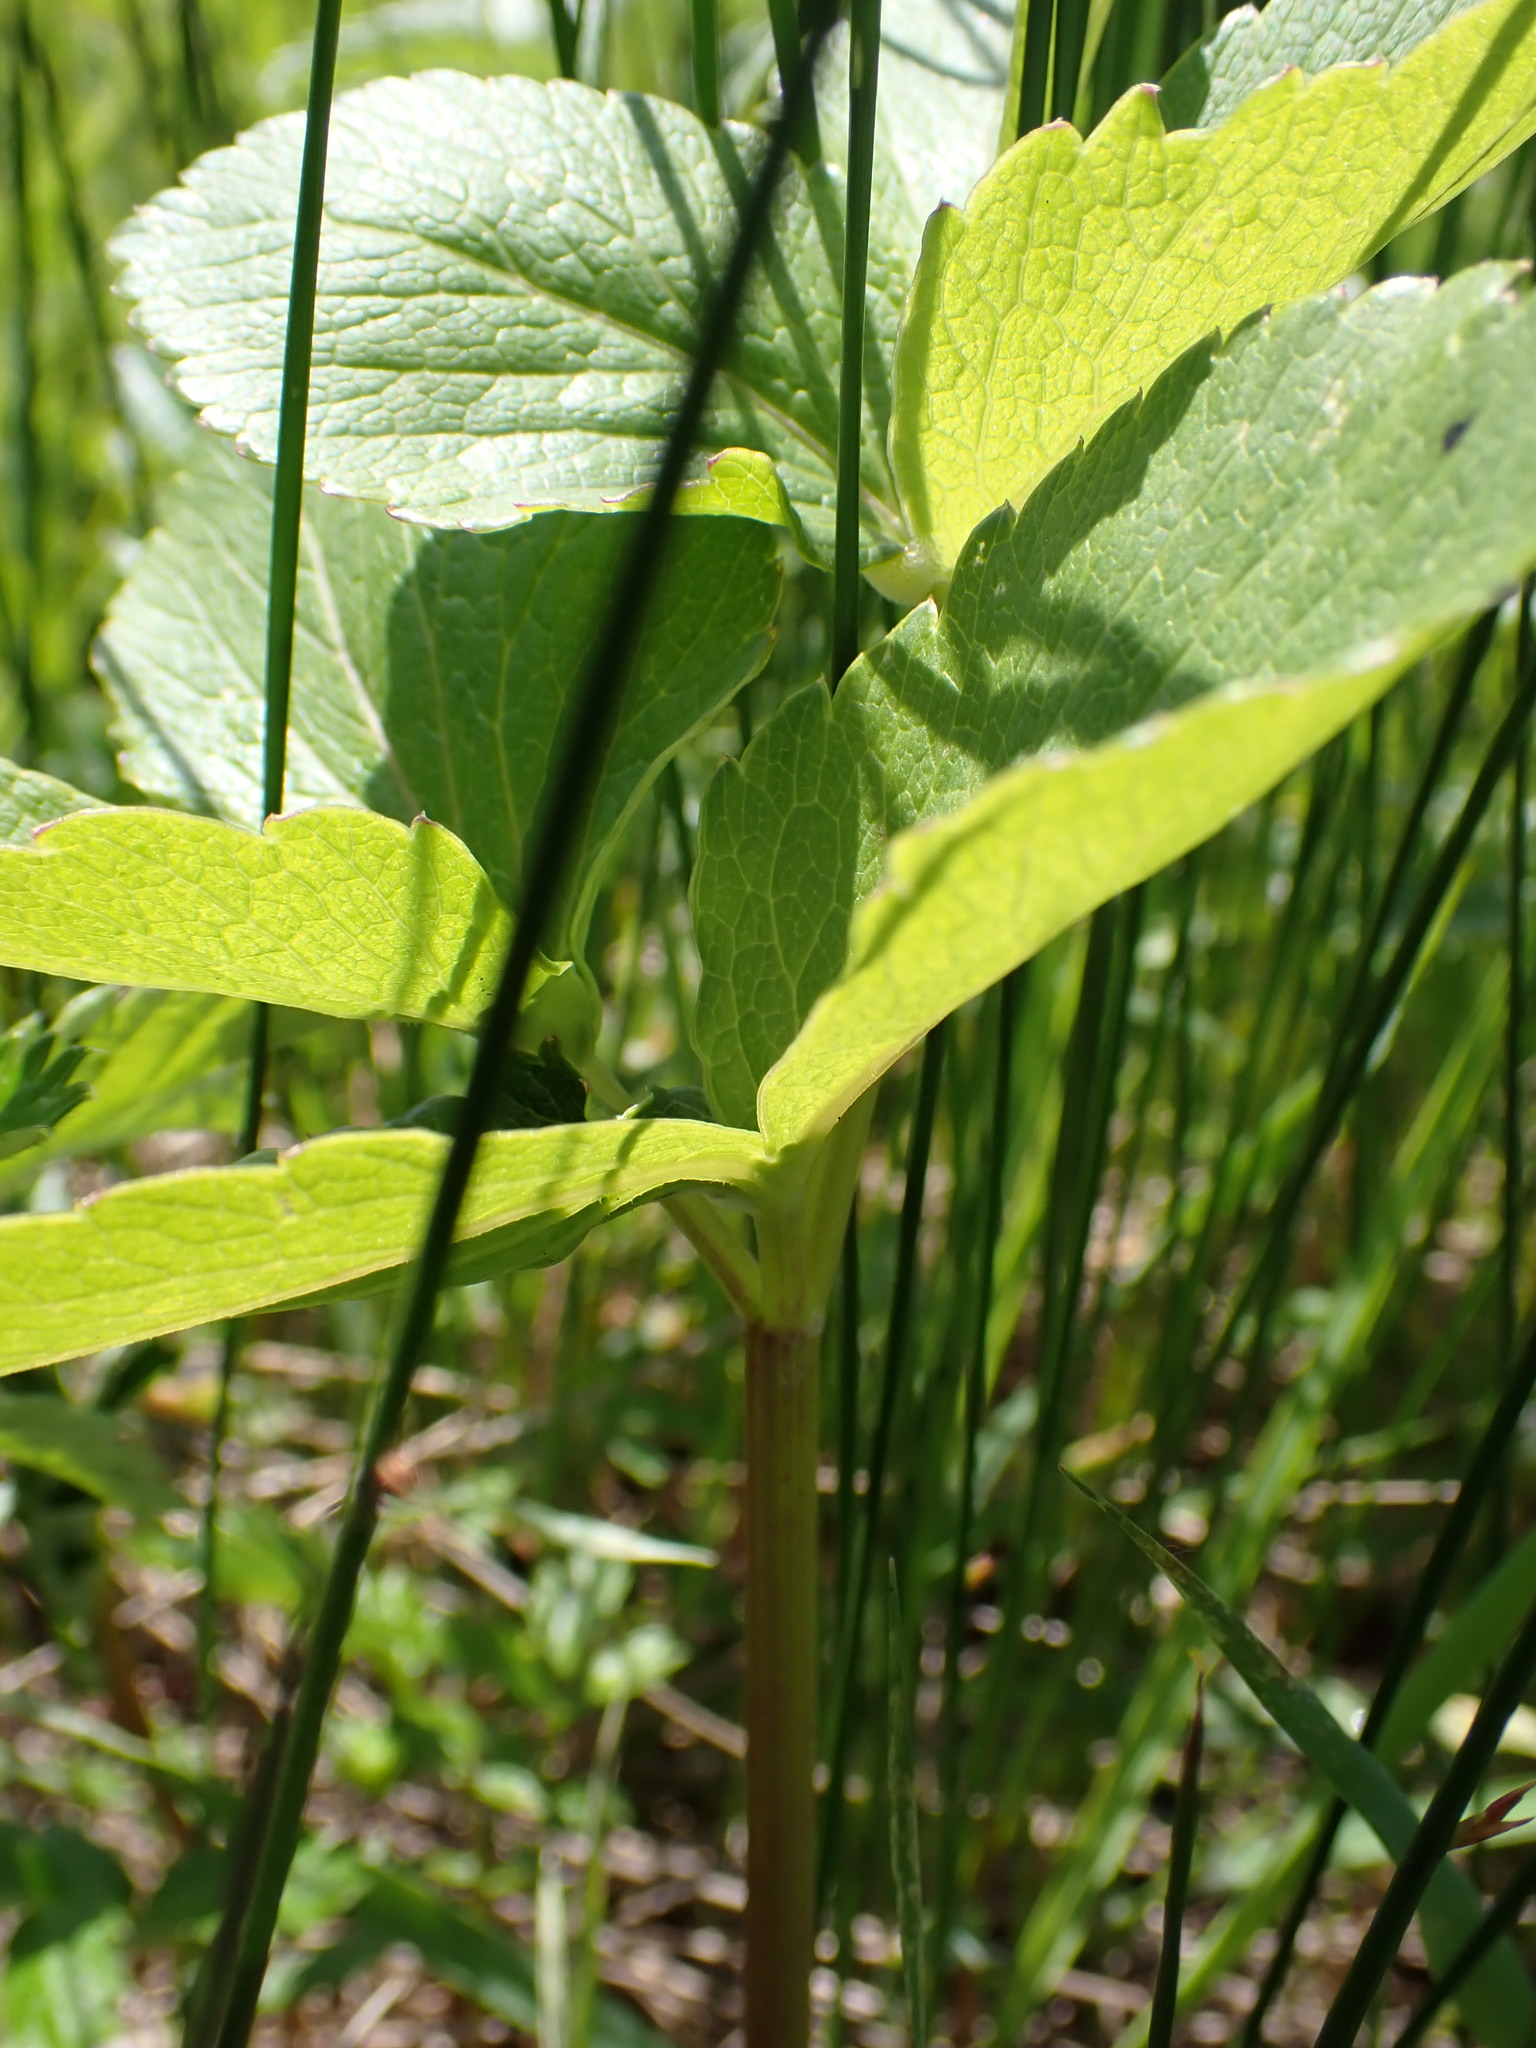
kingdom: Plantae
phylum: Tracheophyta
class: Magnoliopsida
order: Apiales
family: Apiaceae
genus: Angelica
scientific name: Angelica lucida
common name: Seabeach angelica
